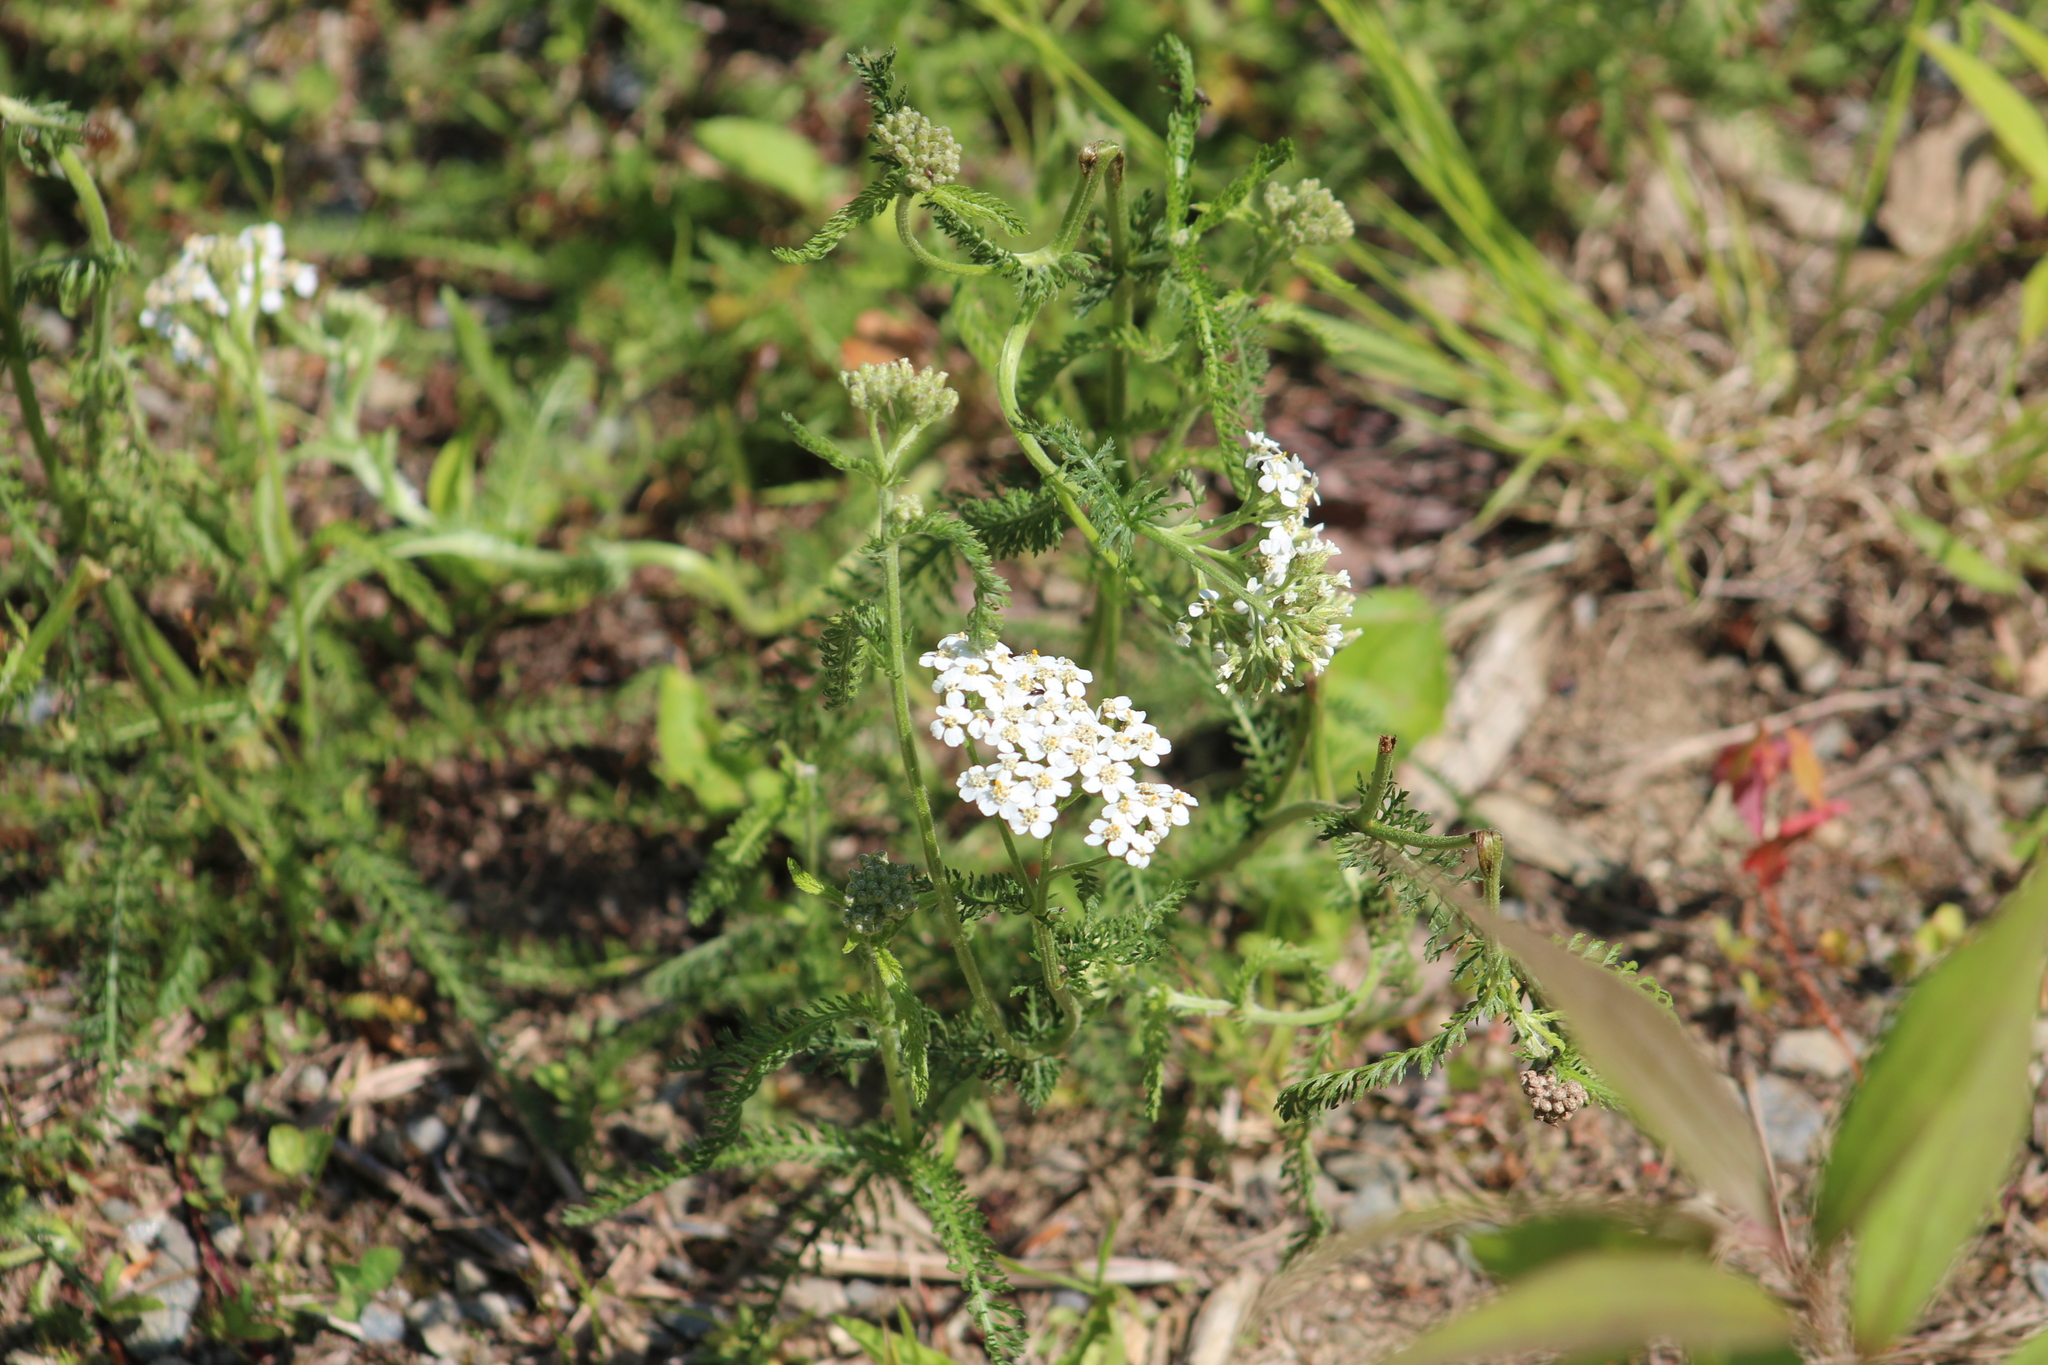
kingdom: Plantae
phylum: Tracheophyta
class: Magnoliopsida
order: Asterales
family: Asteraceae
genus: Achillea
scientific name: Achillea millefolium
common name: Yarrow
